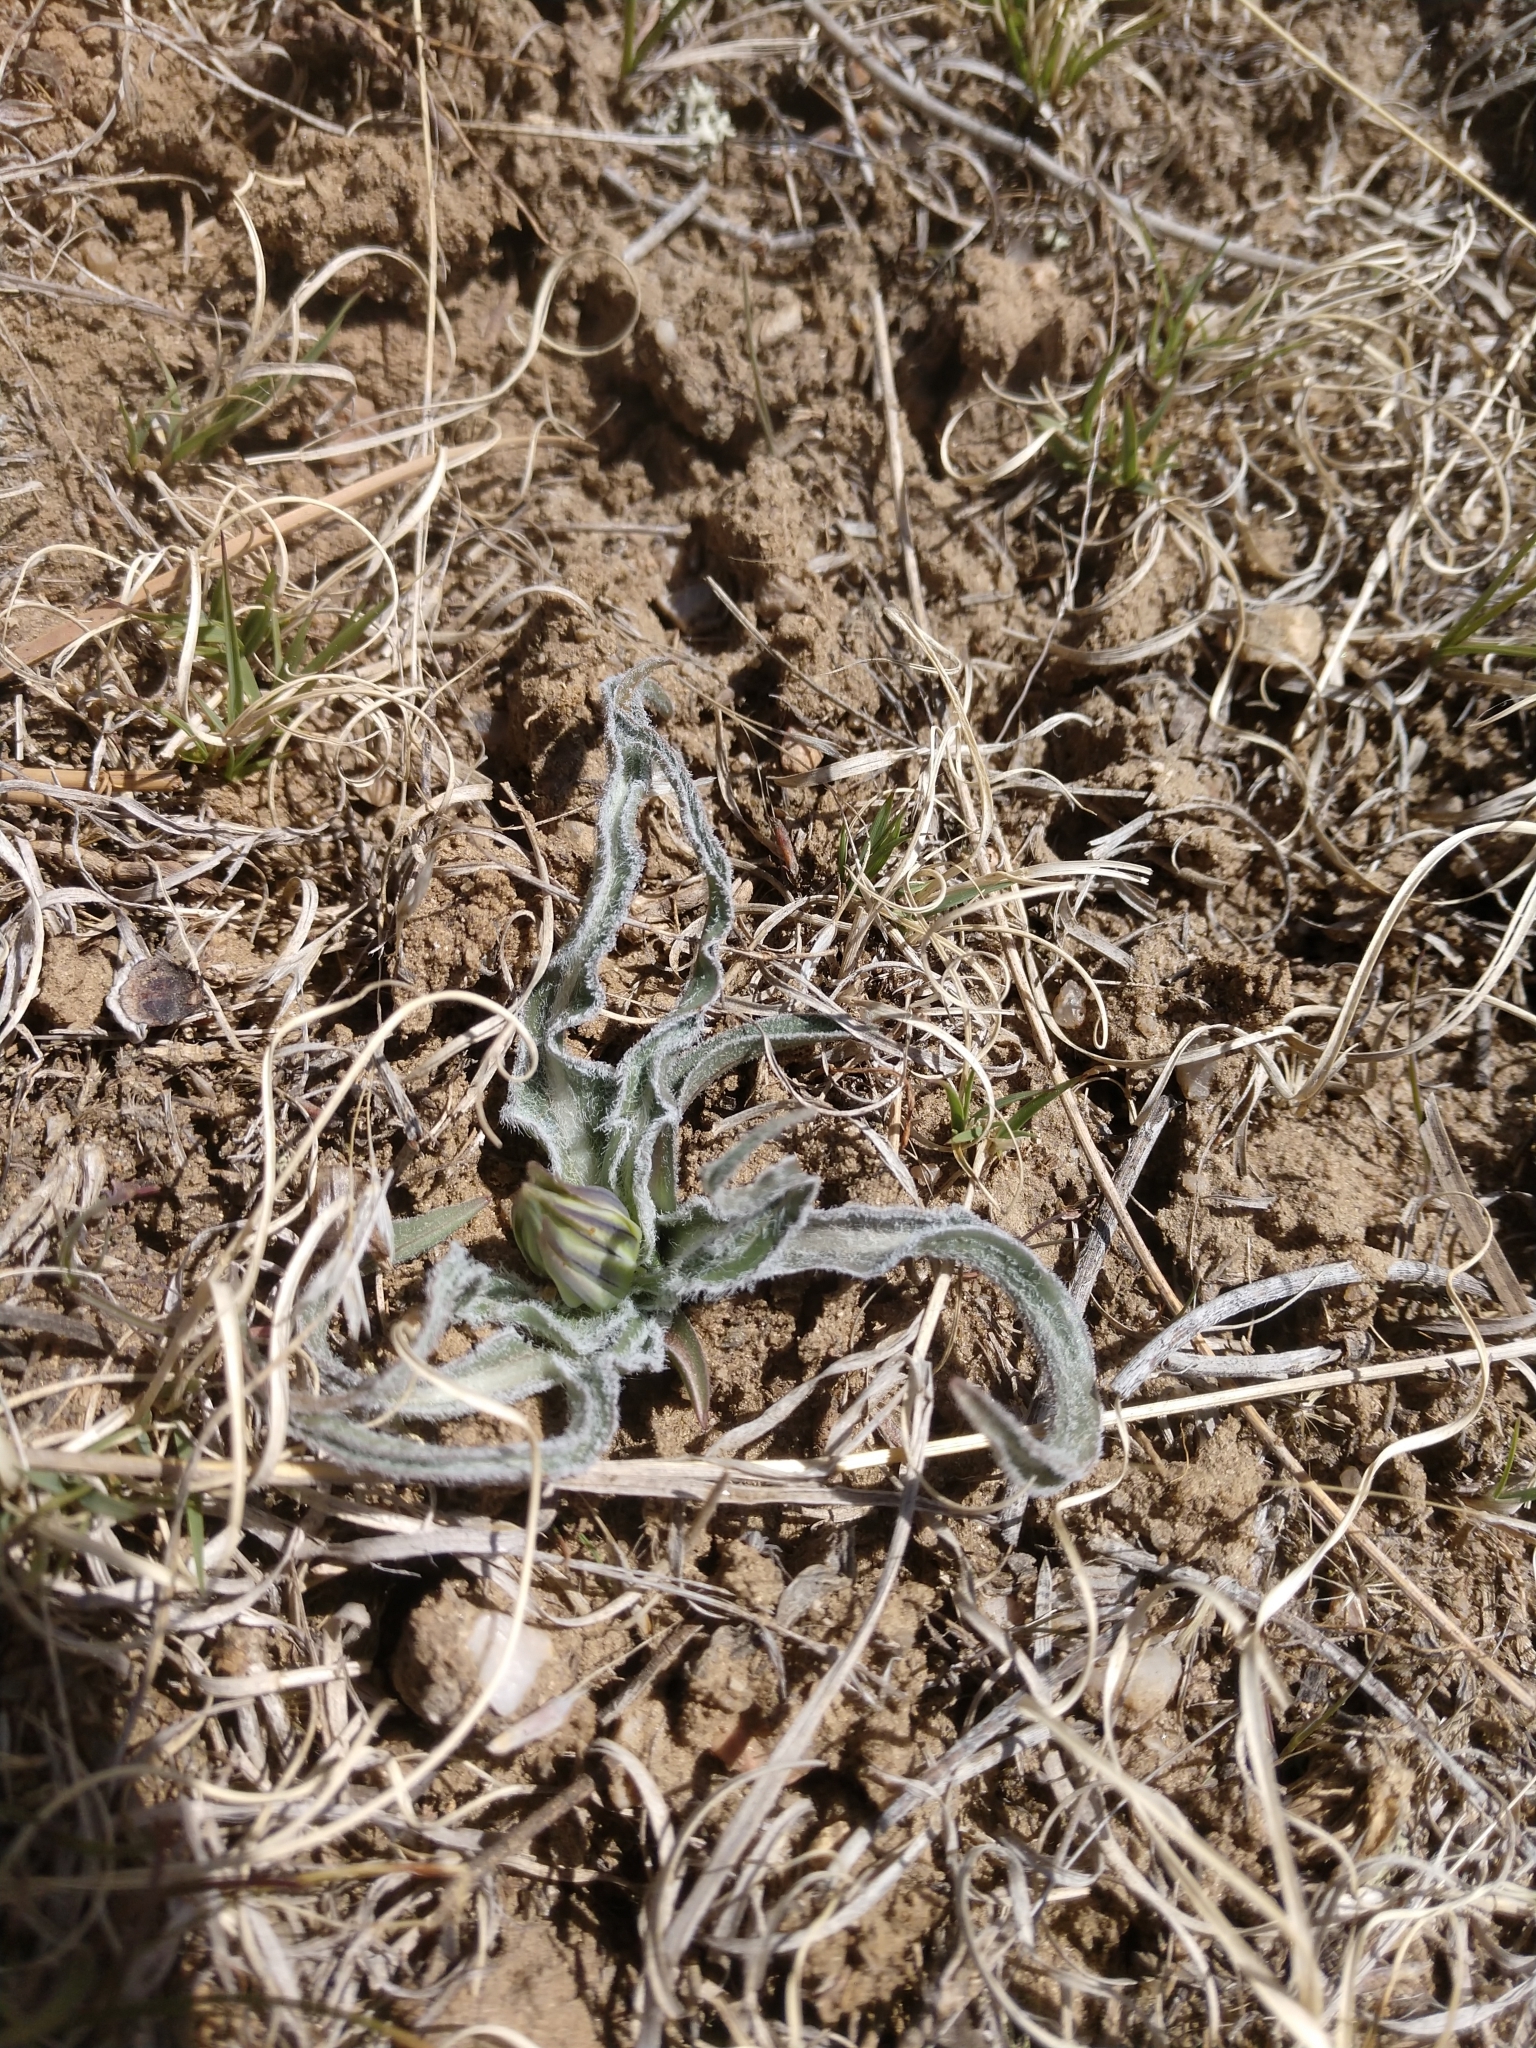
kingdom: Plantae
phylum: Tracheophyta
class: Magnoliopsida
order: Asterales
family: Asteraceae
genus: Microseris
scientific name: Microseris cuspidata
